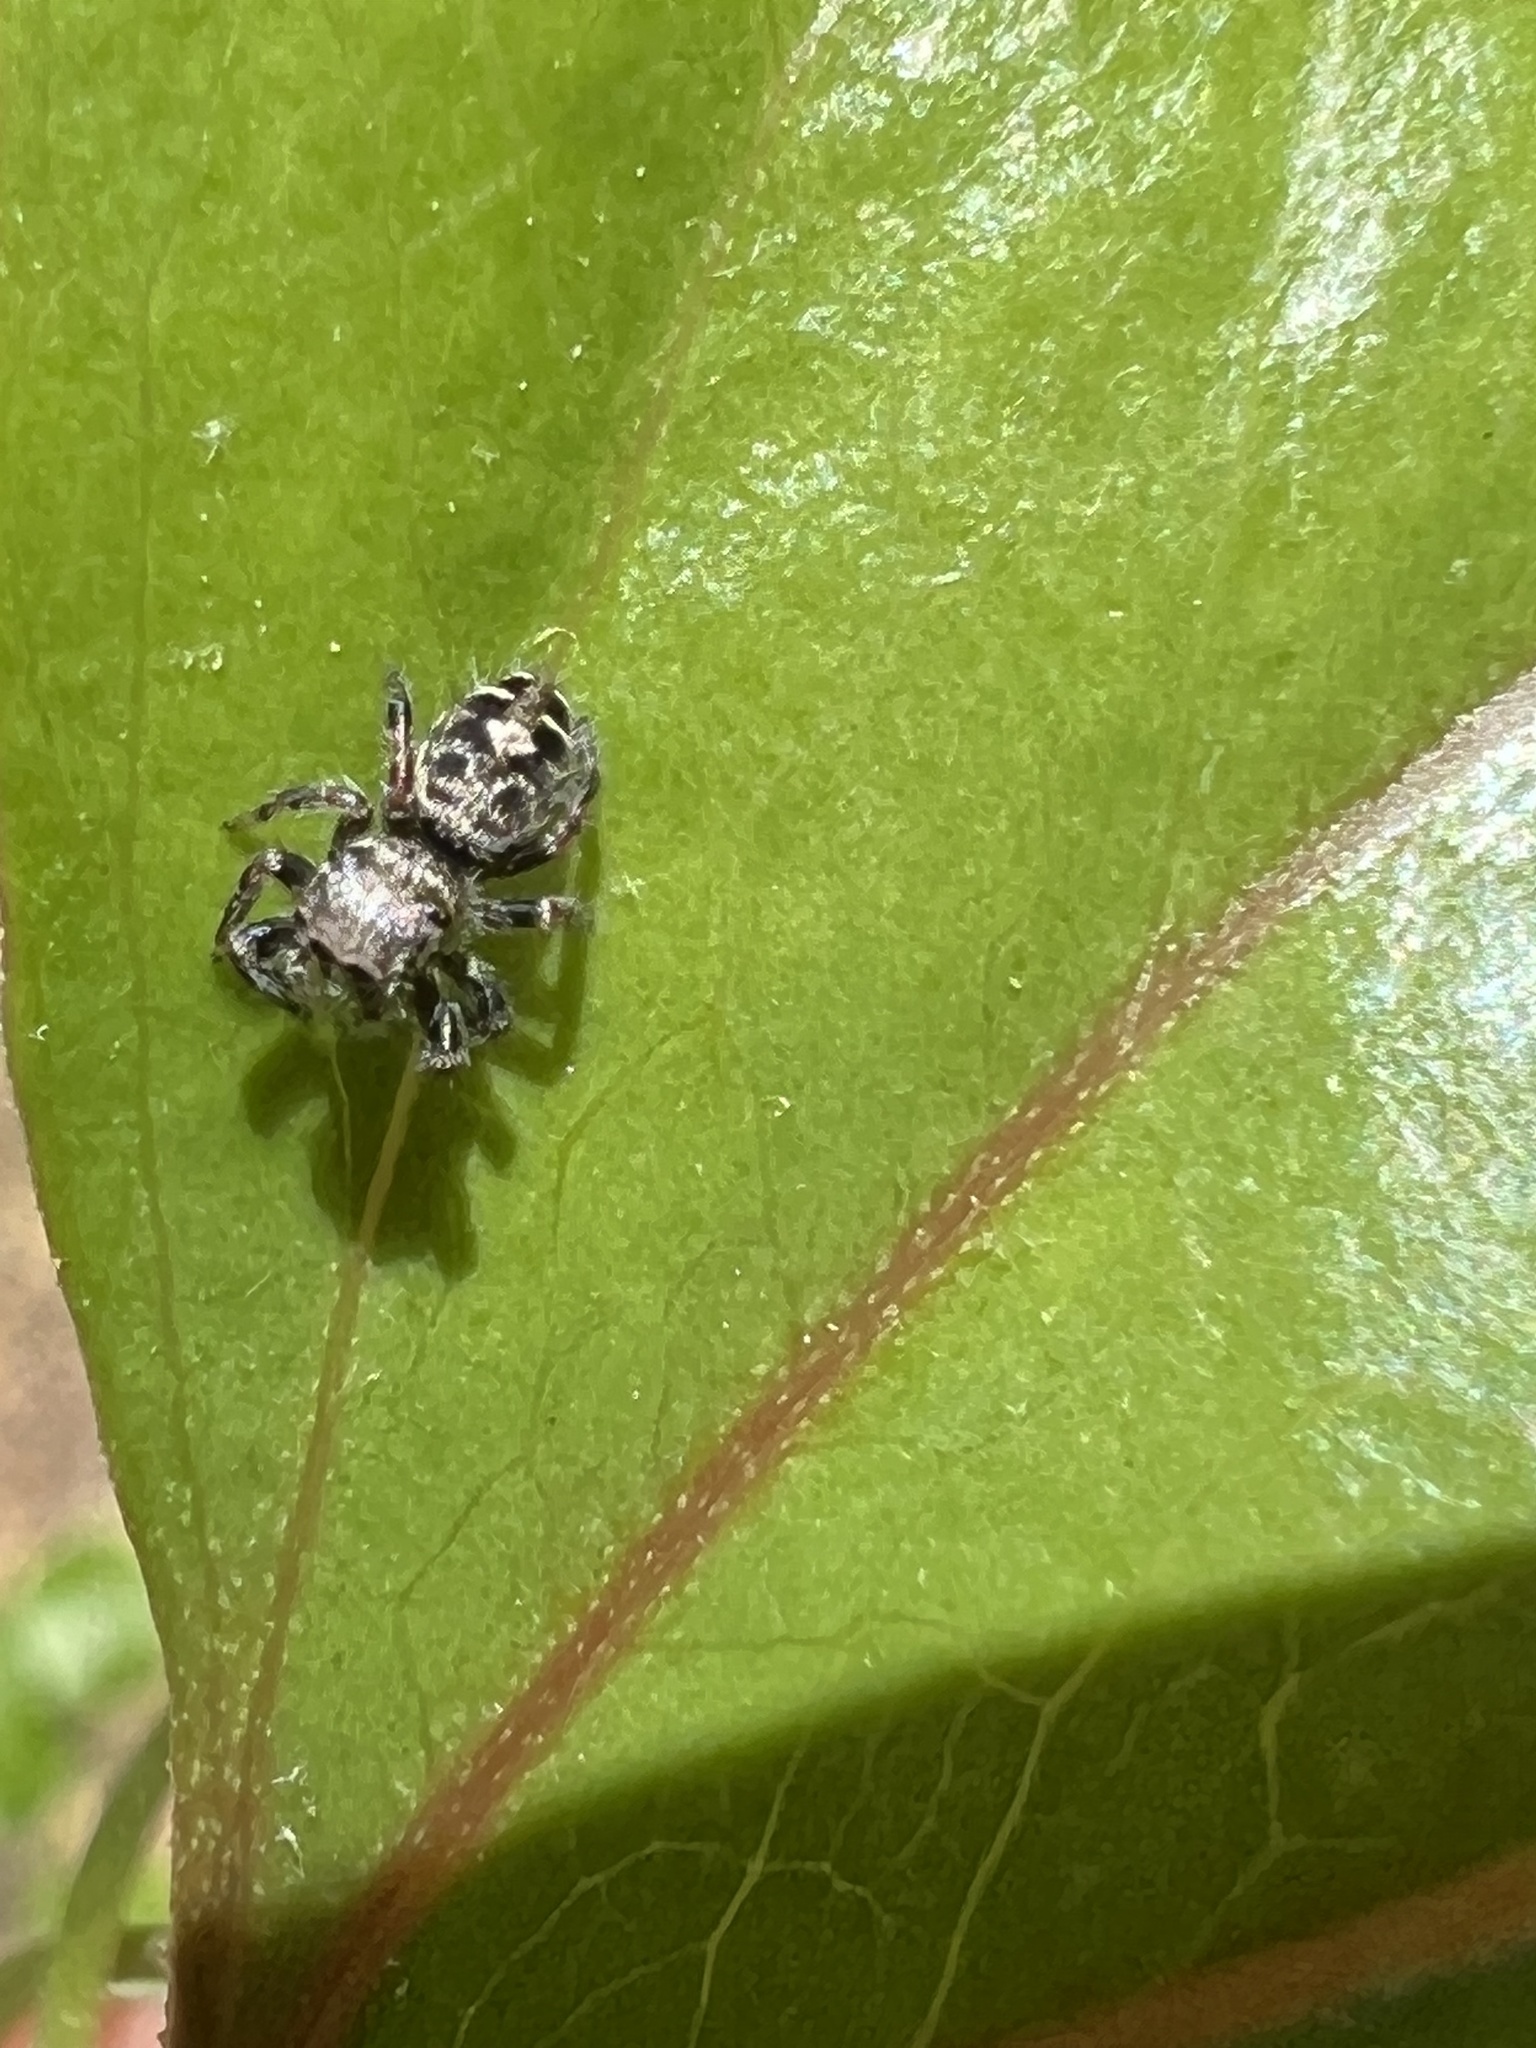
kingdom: Animalia
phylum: Arthropoda
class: Arachnida
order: Araneae
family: Salticidae
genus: Phidippus
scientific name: Phidippus putnami
